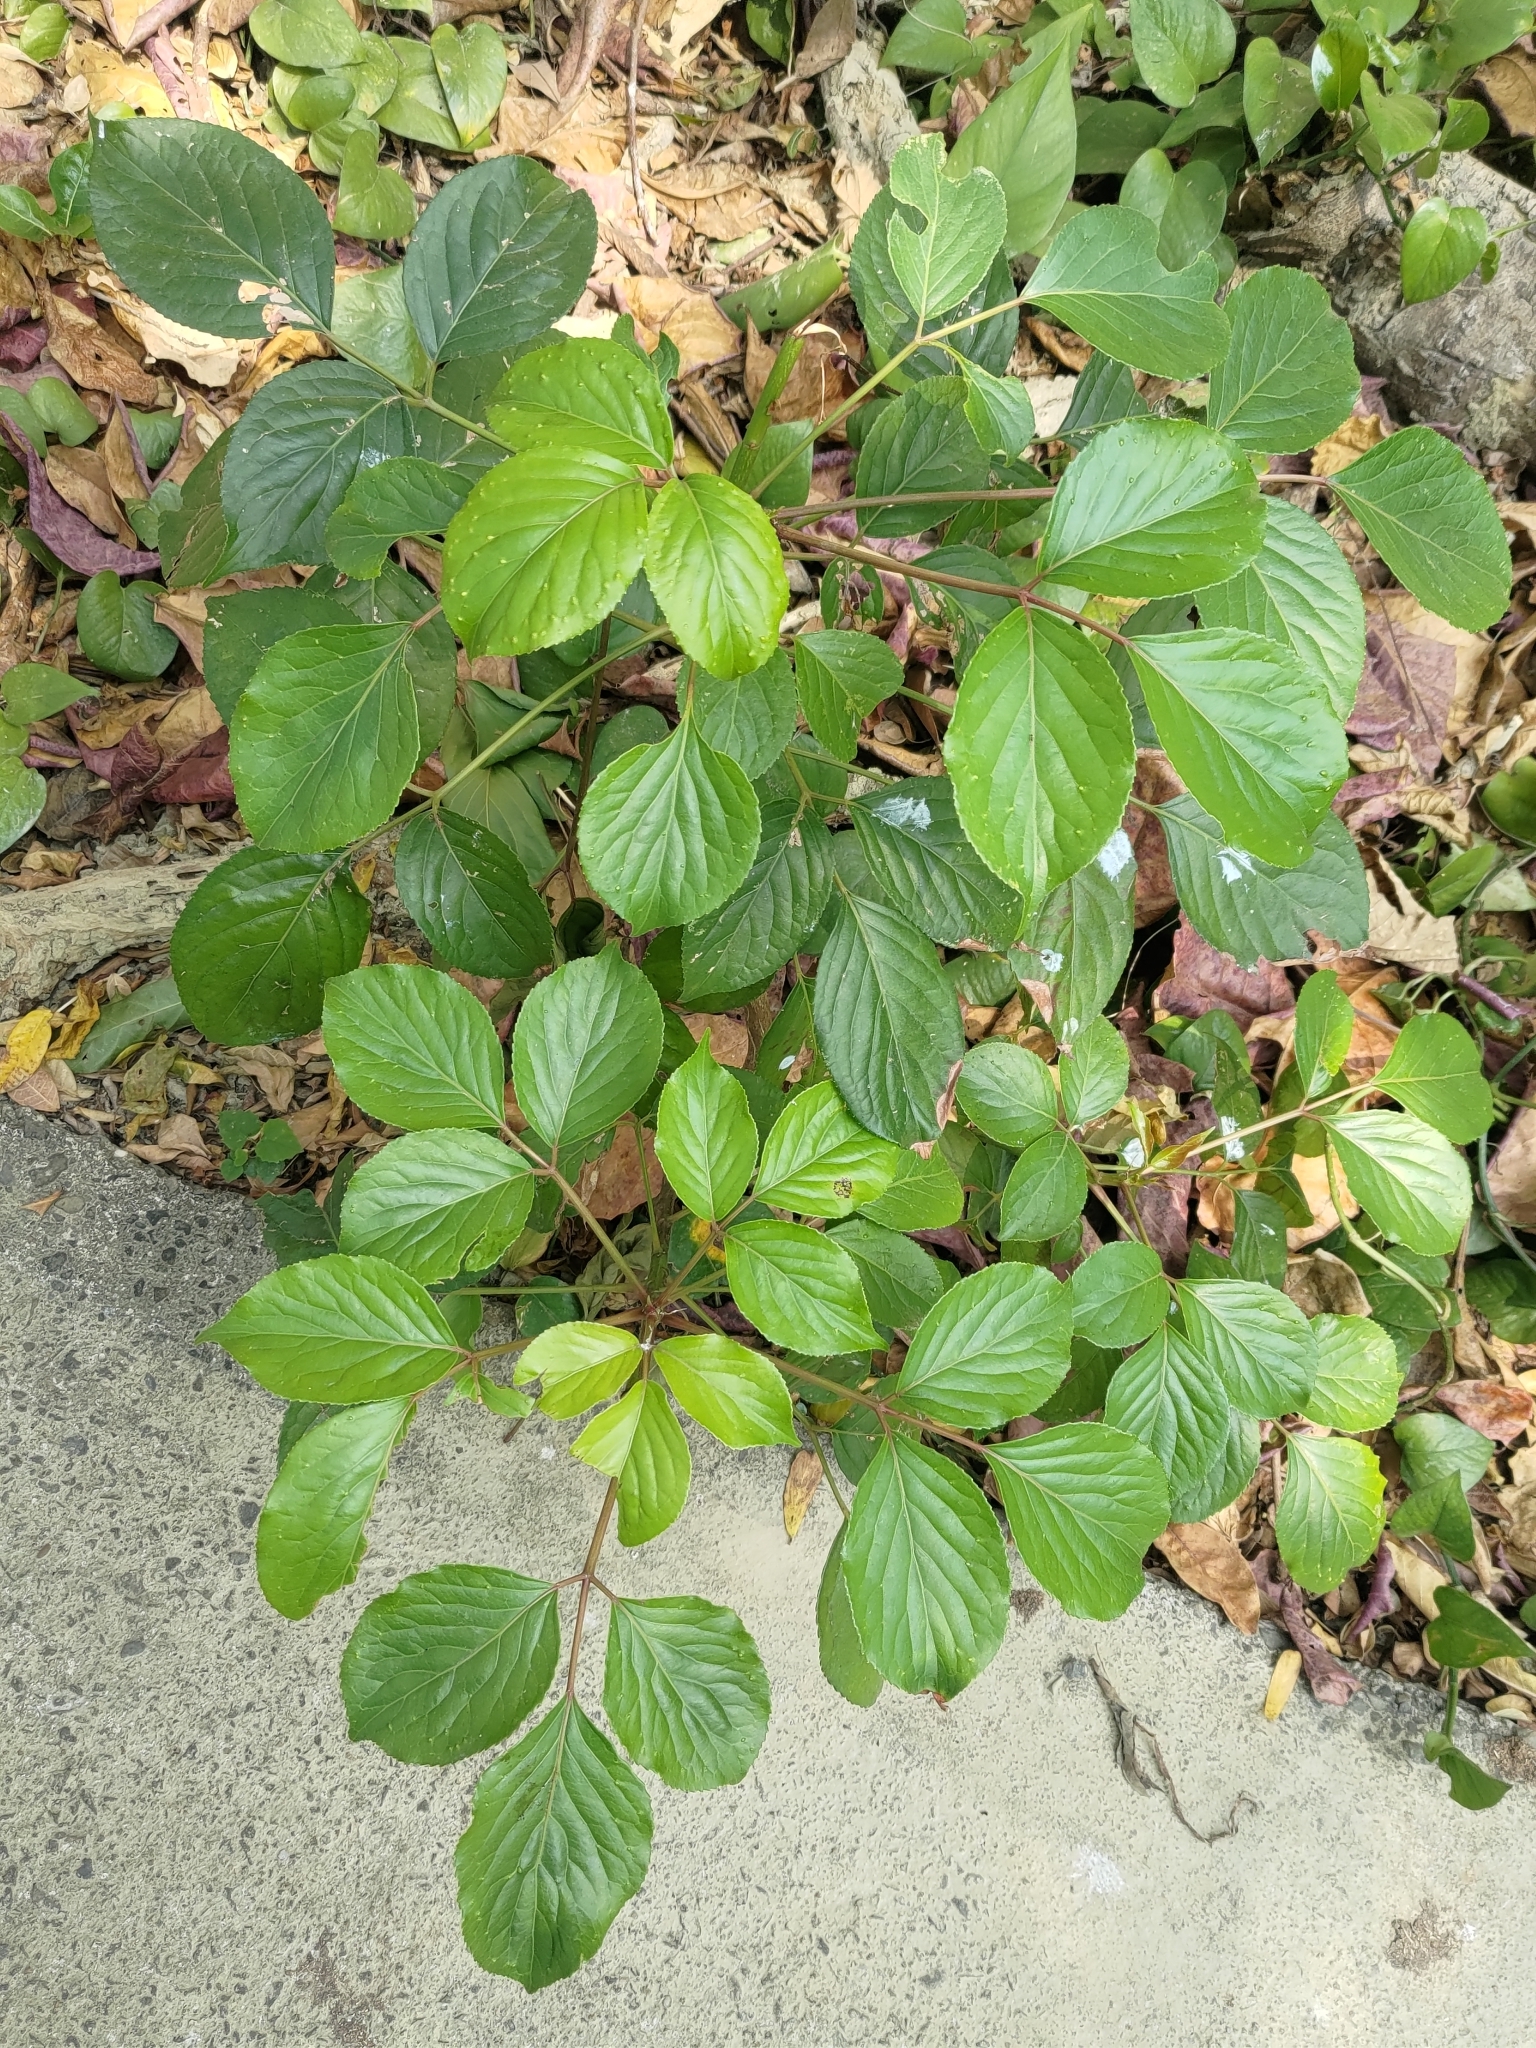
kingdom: Plantae
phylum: Tracheophyta
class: Magnoliopsida
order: Malpighiales
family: Phyllanthaceae
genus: Bischofia
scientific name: Bischofia javanica
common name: Javanese bishopwood
